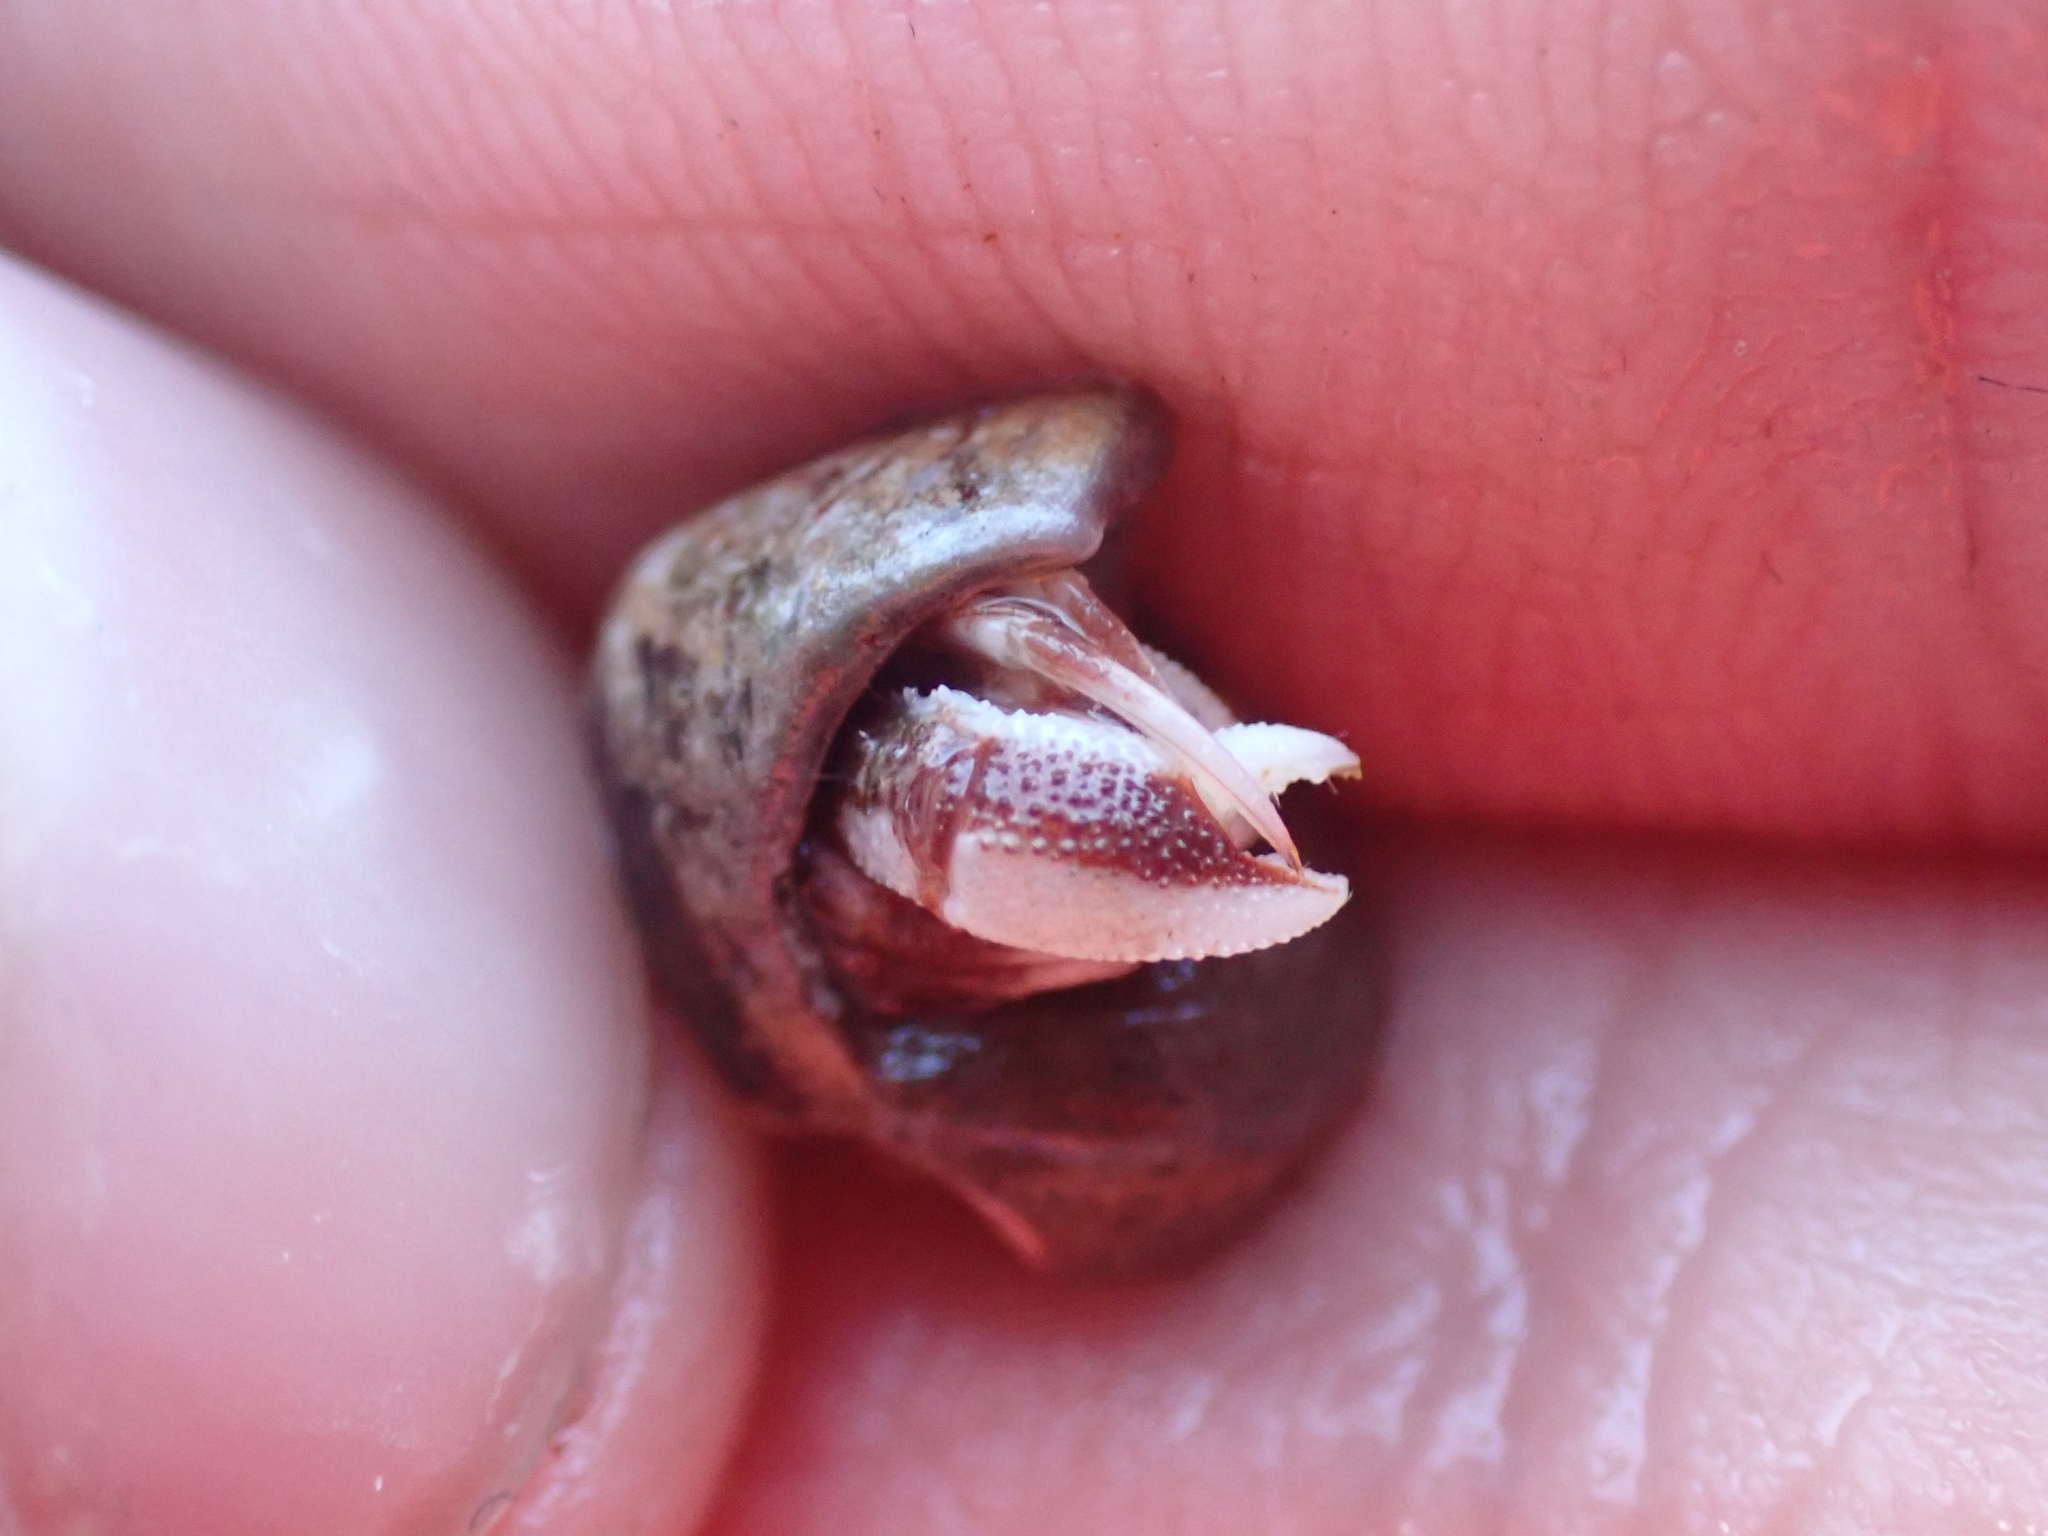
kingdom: Animalia
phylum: Arthropoda
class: Malacostraca
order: Decapoda
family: Paguridae
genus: Pagurus
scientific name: Pagurus acadianus
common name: Acadian hermit crab
